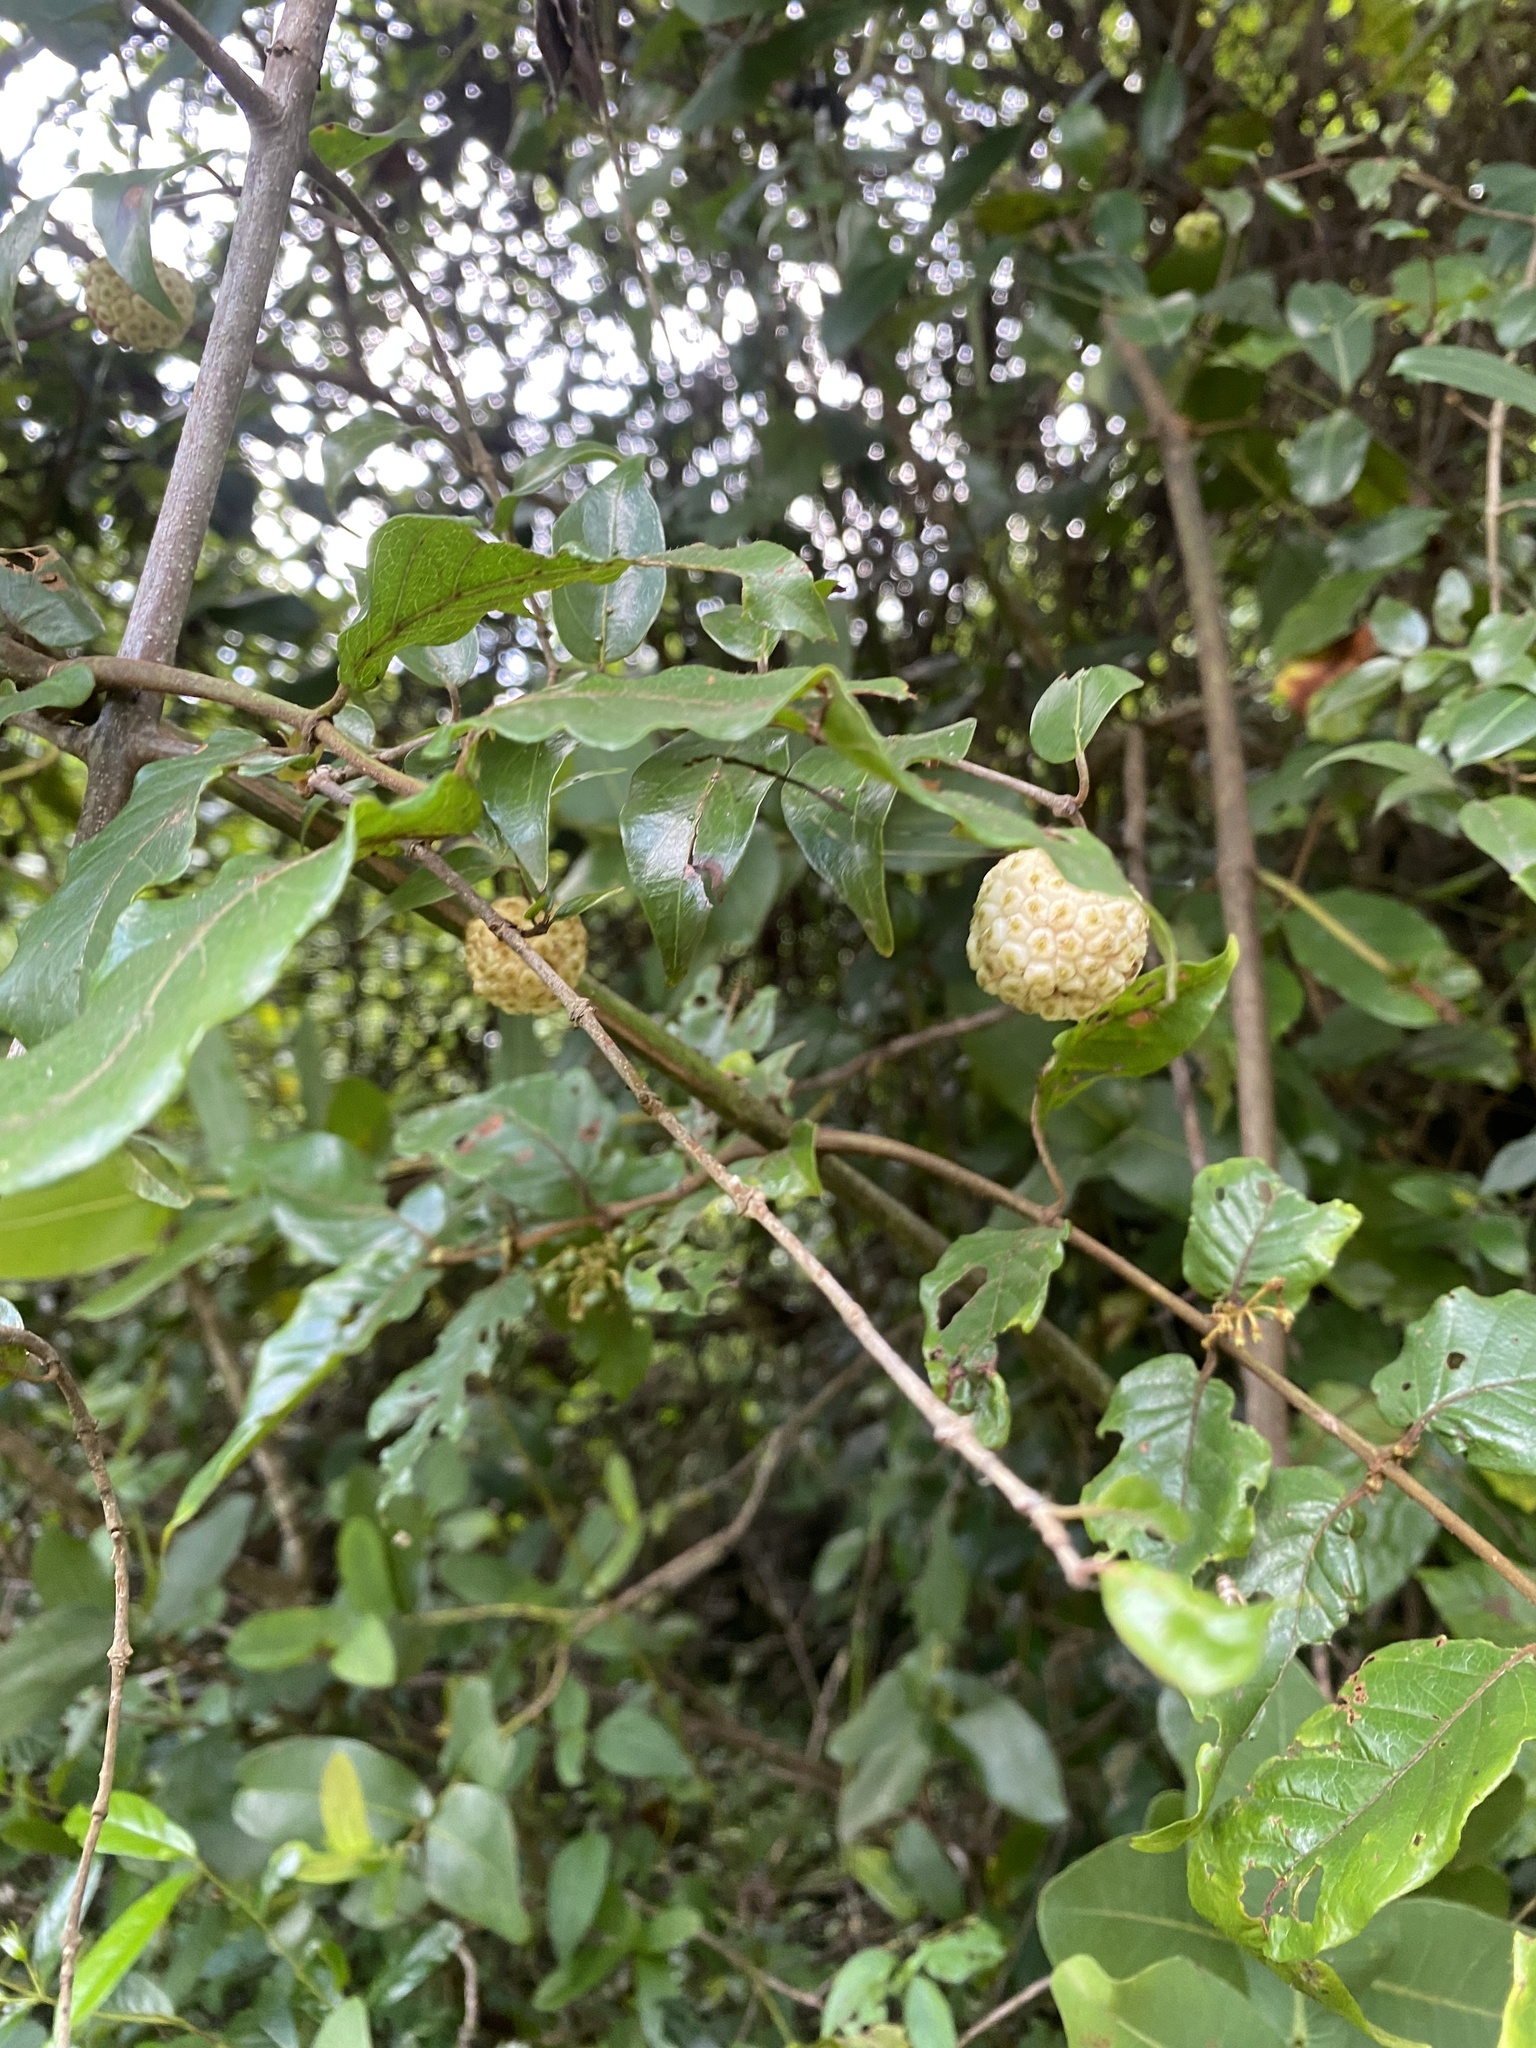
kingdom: Plantae
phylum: Tracheophyta
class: Magnoliopsida
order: Gentianales
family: Rubiaceae
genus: Cephalanthus
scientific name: Cephalanthus natalensis
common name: Strawberry bush
